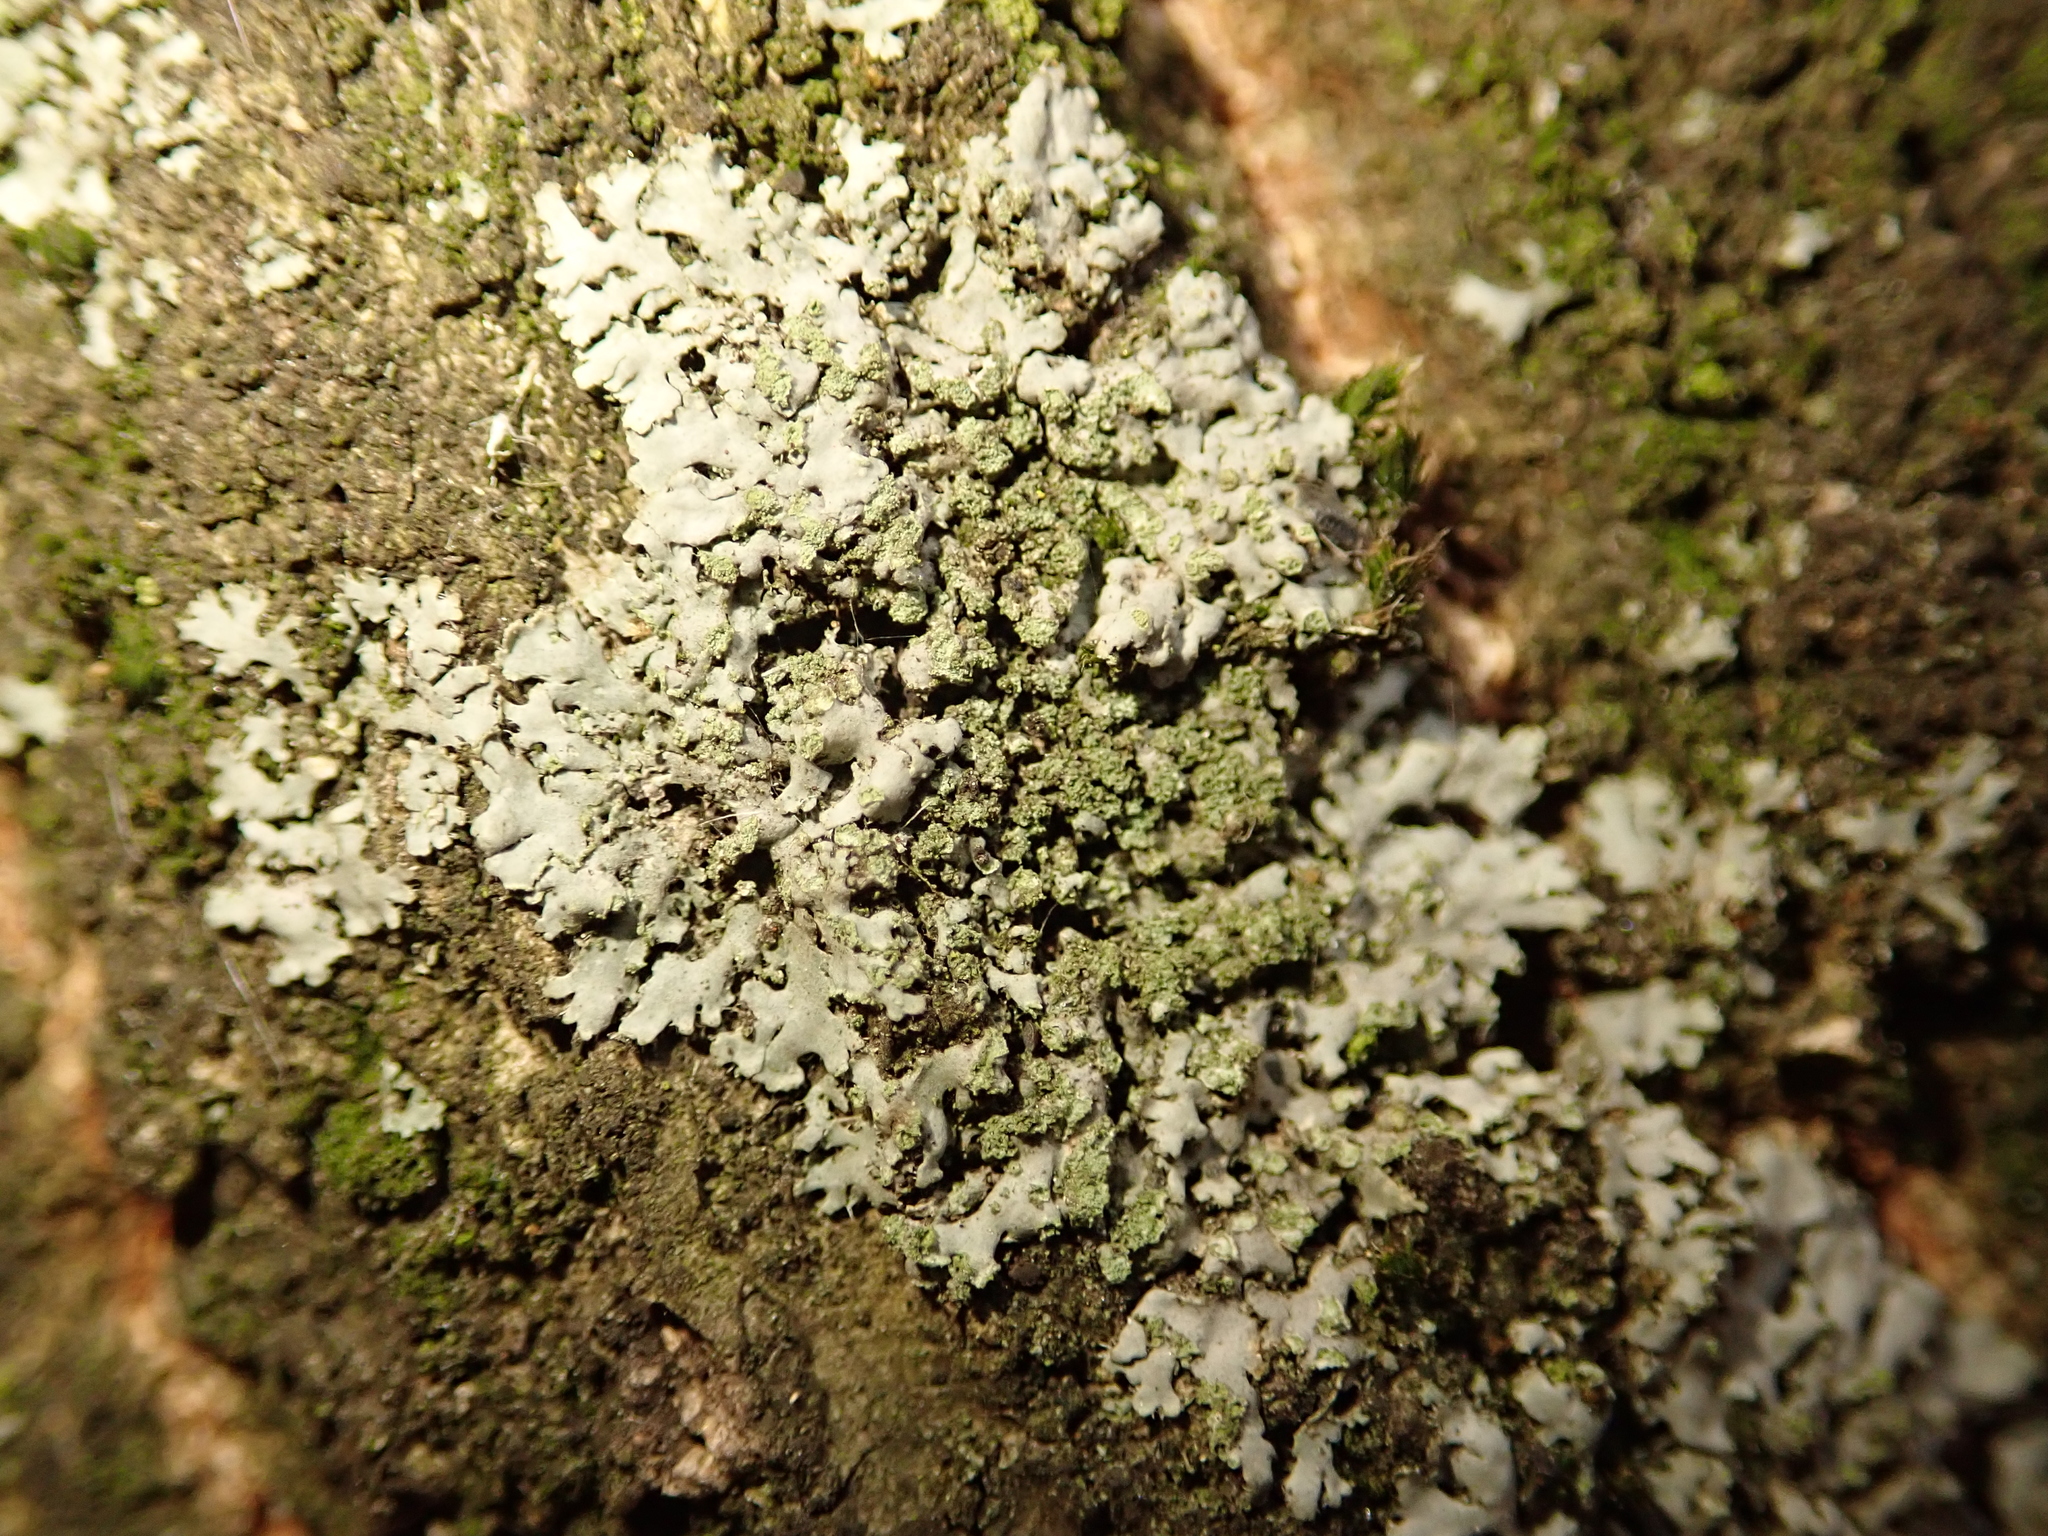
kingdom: Fungi
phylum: Ascomycota
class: Lecanoromycetes
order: Caliciales
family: Physciaceae
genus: Phaeophyscia
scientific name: Phaeophyscia orbicularis
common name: Mealy shadow lichen
